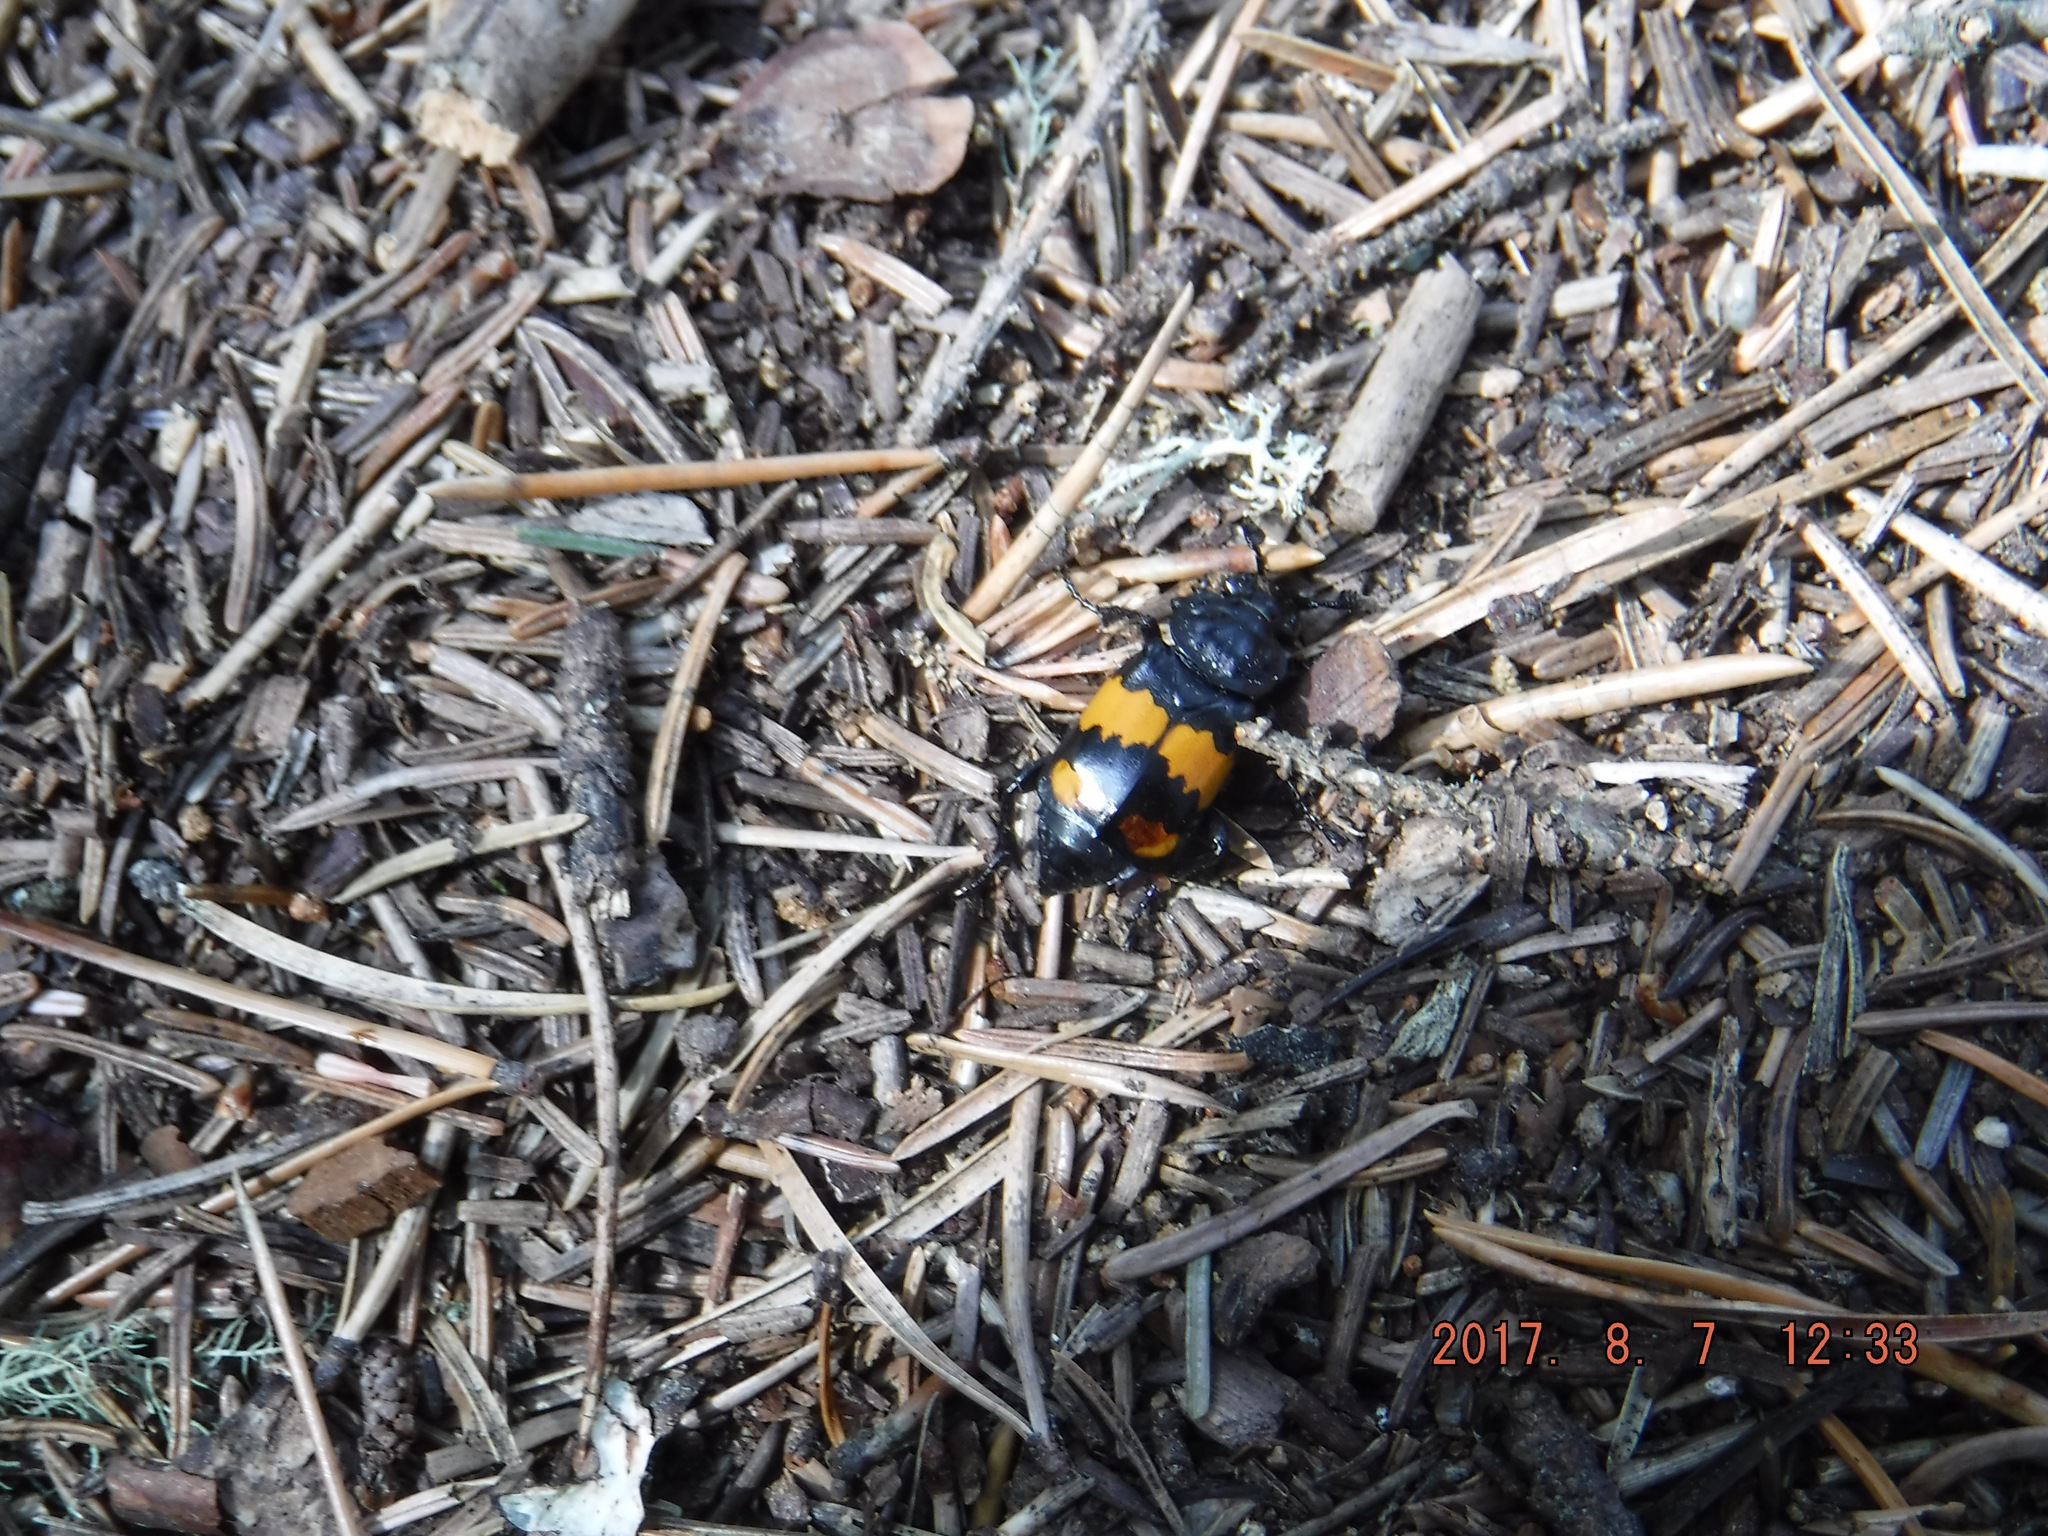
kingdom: Animalia
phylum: Arthropoda
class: Insecta
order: Coleoptera
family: Staphylinidae
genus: Nicrophorus
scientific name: Nicrophorus defodiens
